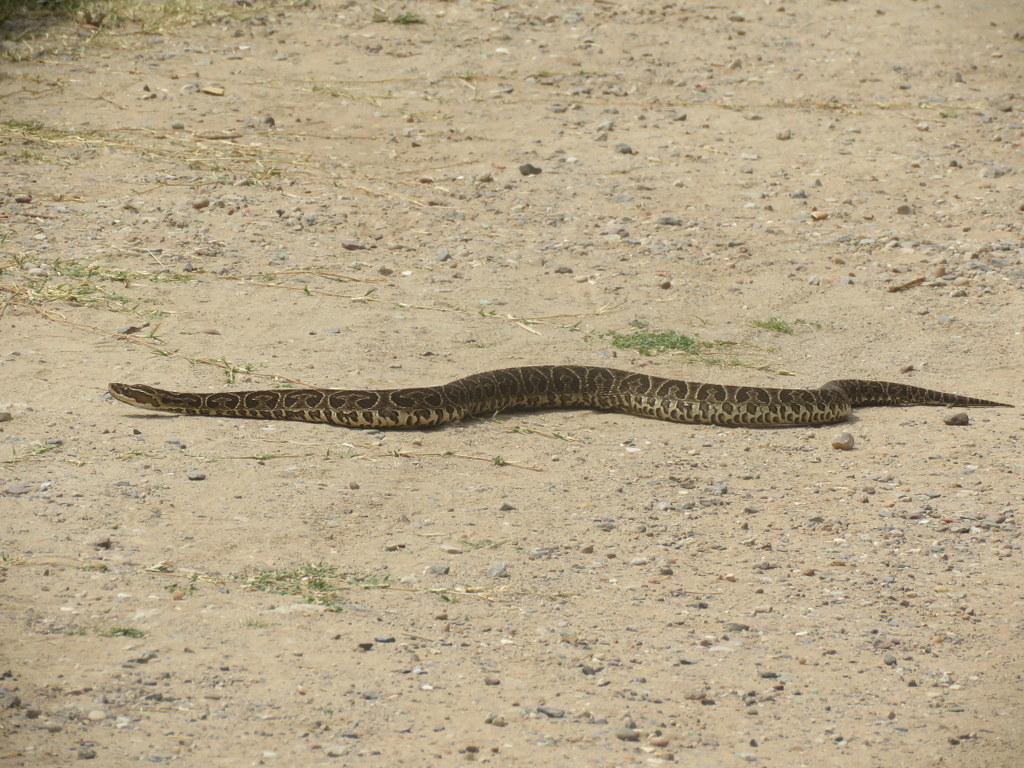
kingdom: Animalia
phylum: Chordata
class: Squamata
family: Viperidae
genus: Bothrops
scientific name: Bothrops alternatus
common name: Urutu
